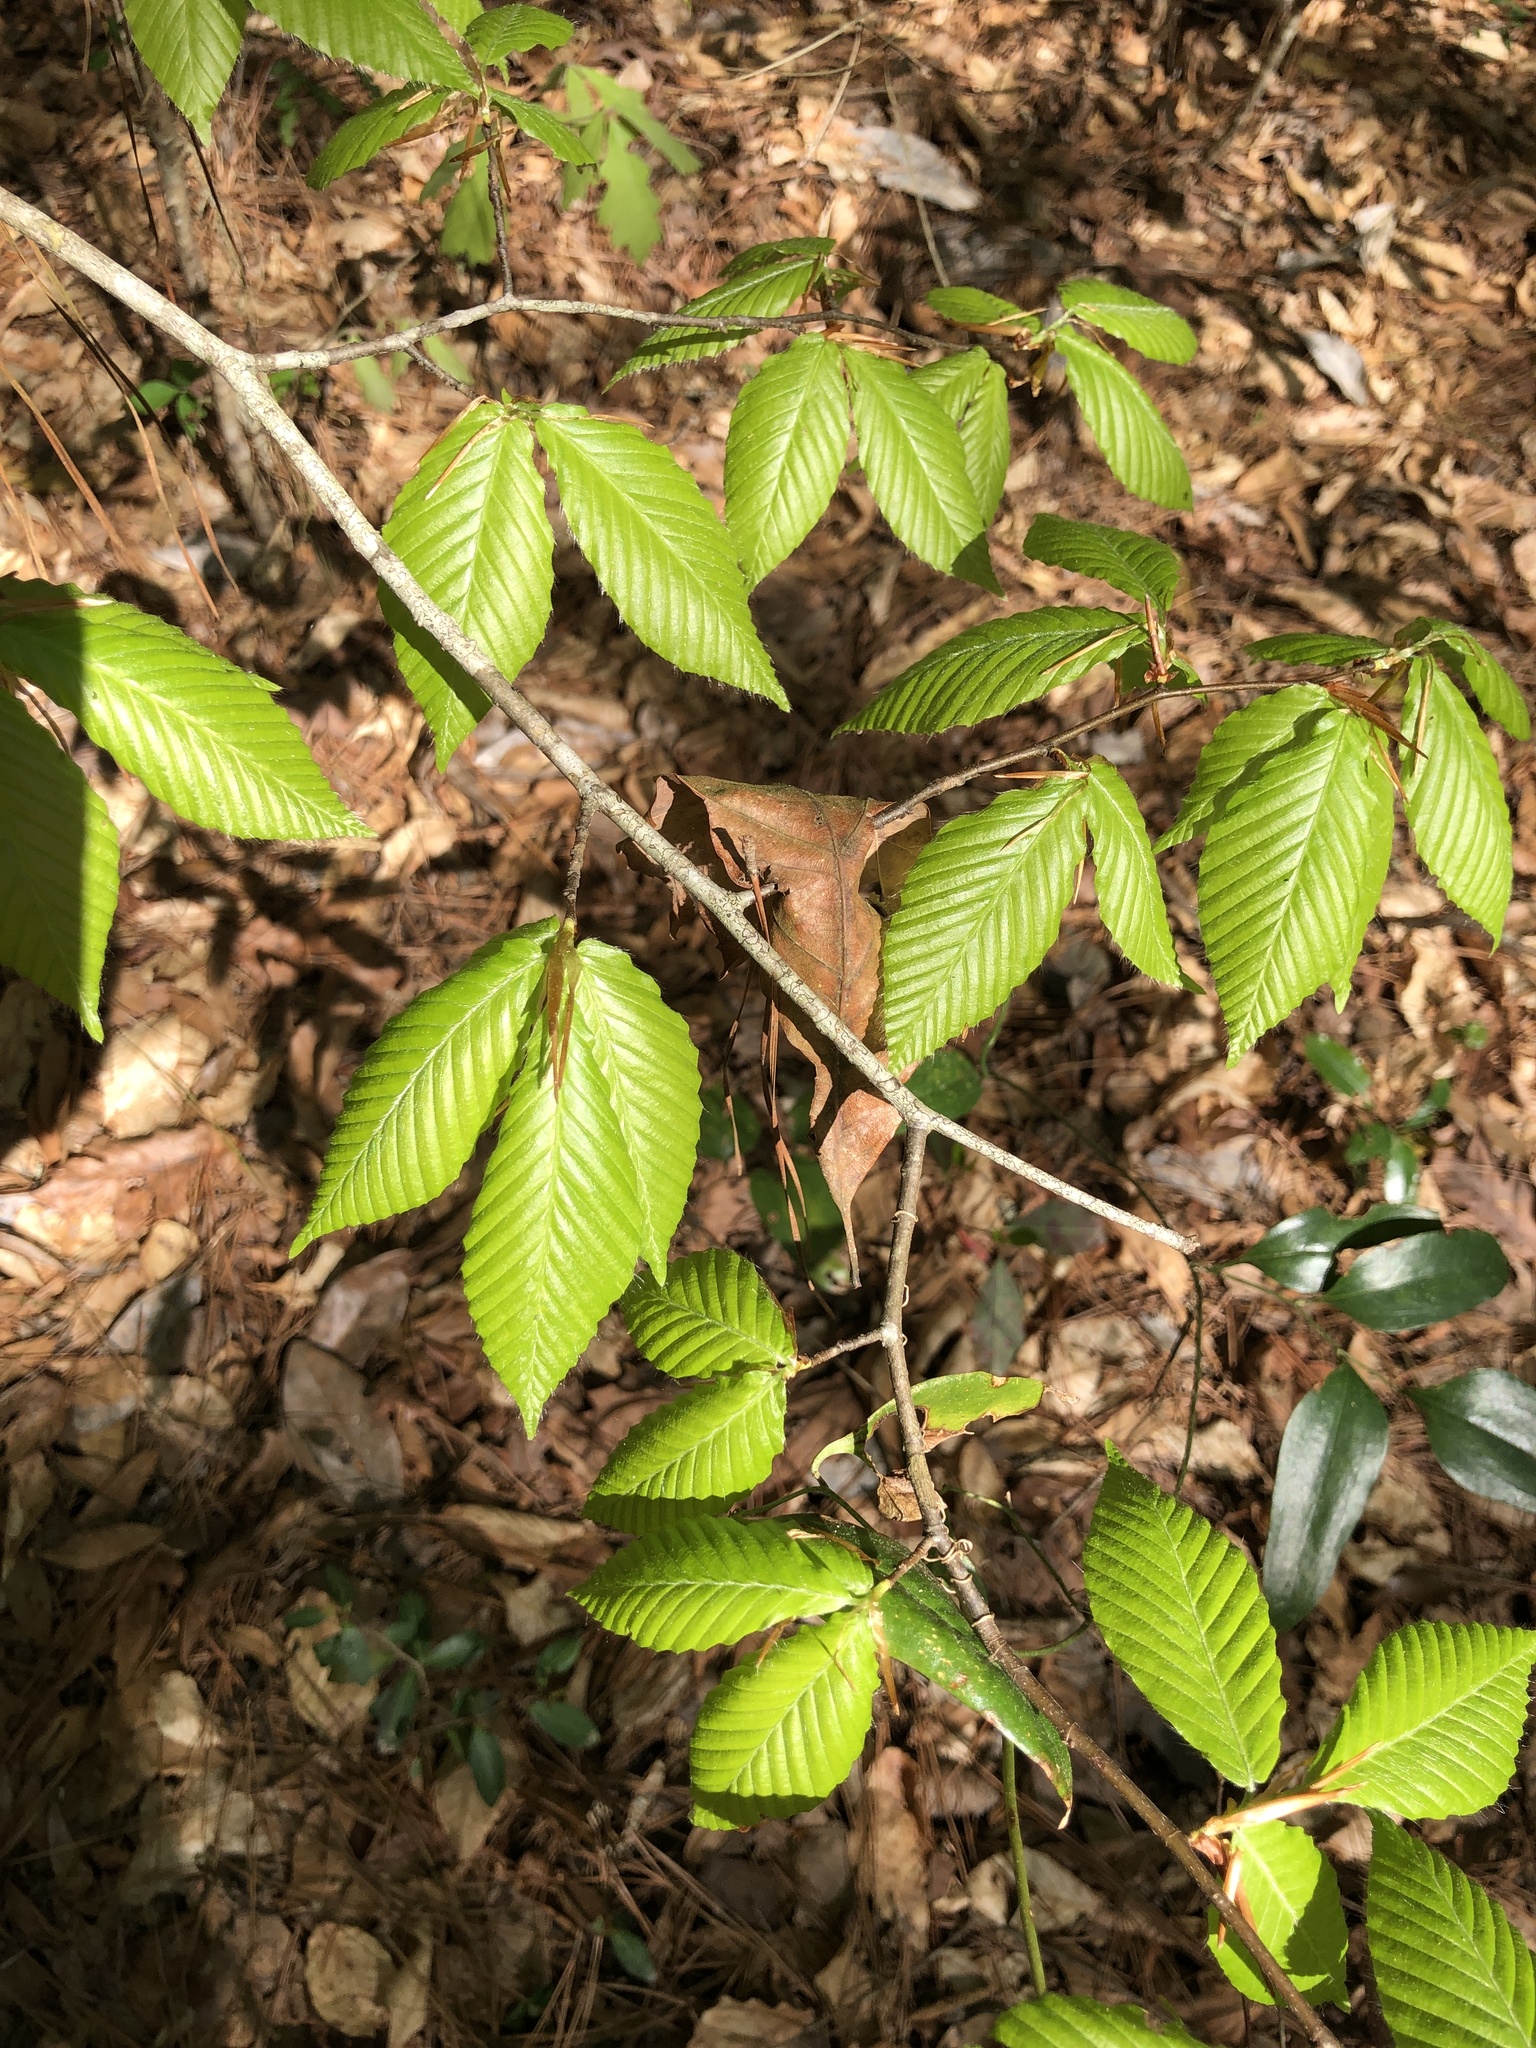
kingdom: Plantae
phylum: Tracheophyta
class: Magnoliopsida
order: Fagales
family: Fagaceae
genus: Fagus
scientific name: Fagus grandifolia
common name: American beech
